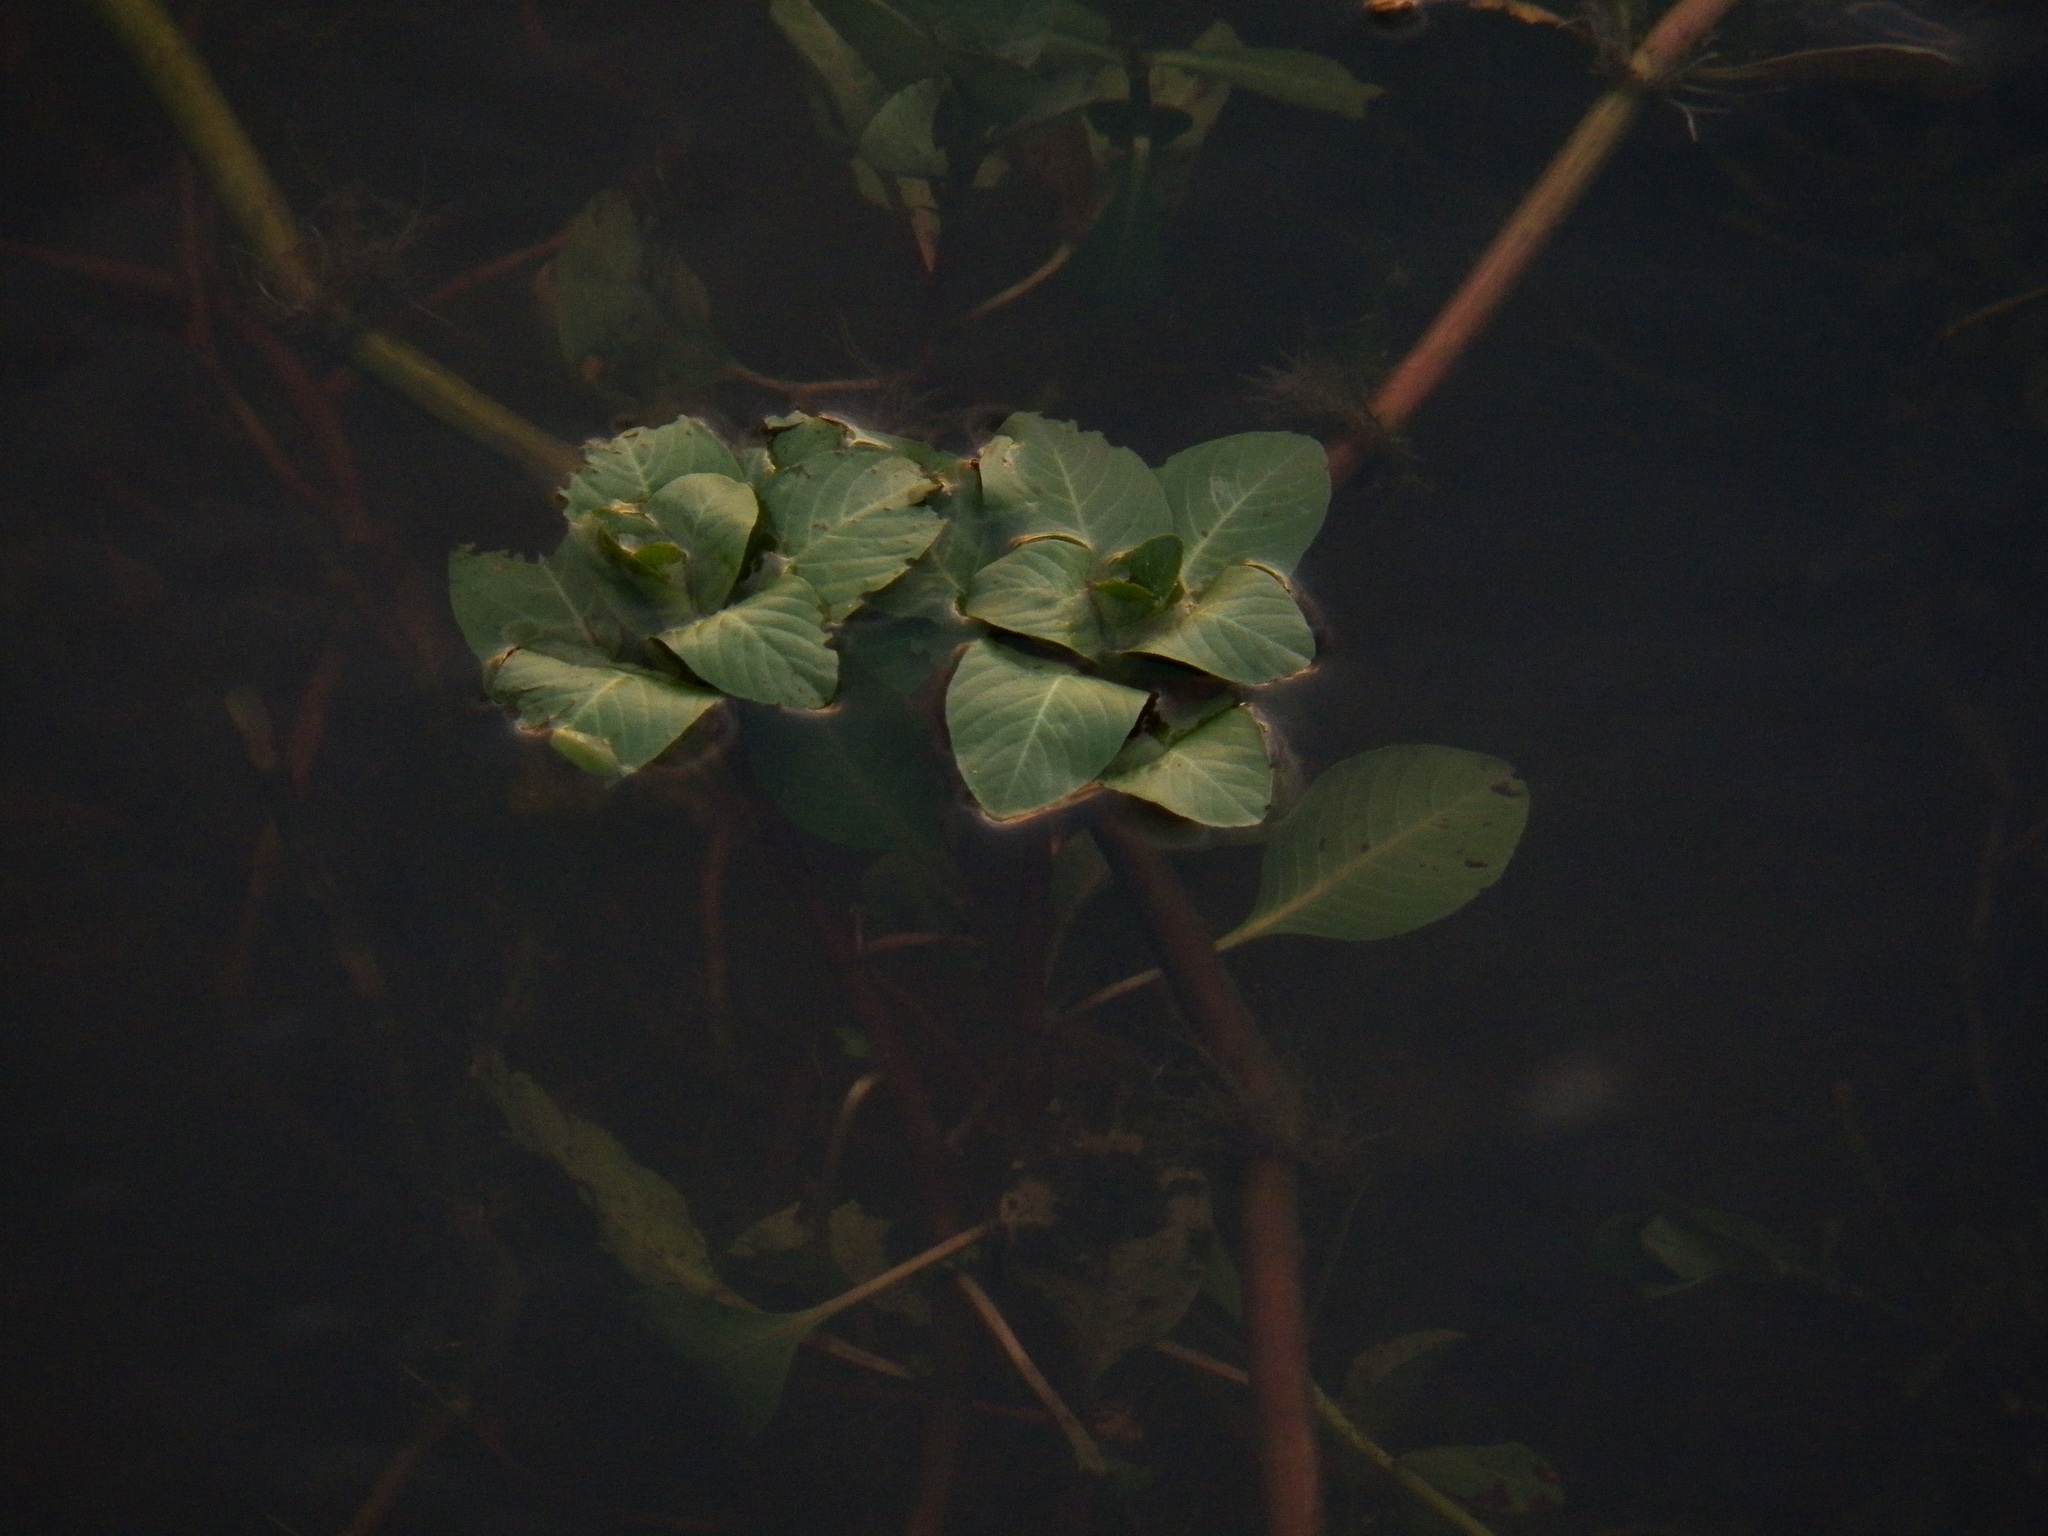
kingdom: Plantae
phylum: Tracheophyta
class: Magnoliopsida
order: Myrtales
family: Onagraceae
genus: Ludwigia
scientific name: Ludwigia peploides
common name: Floating primrose-willow
